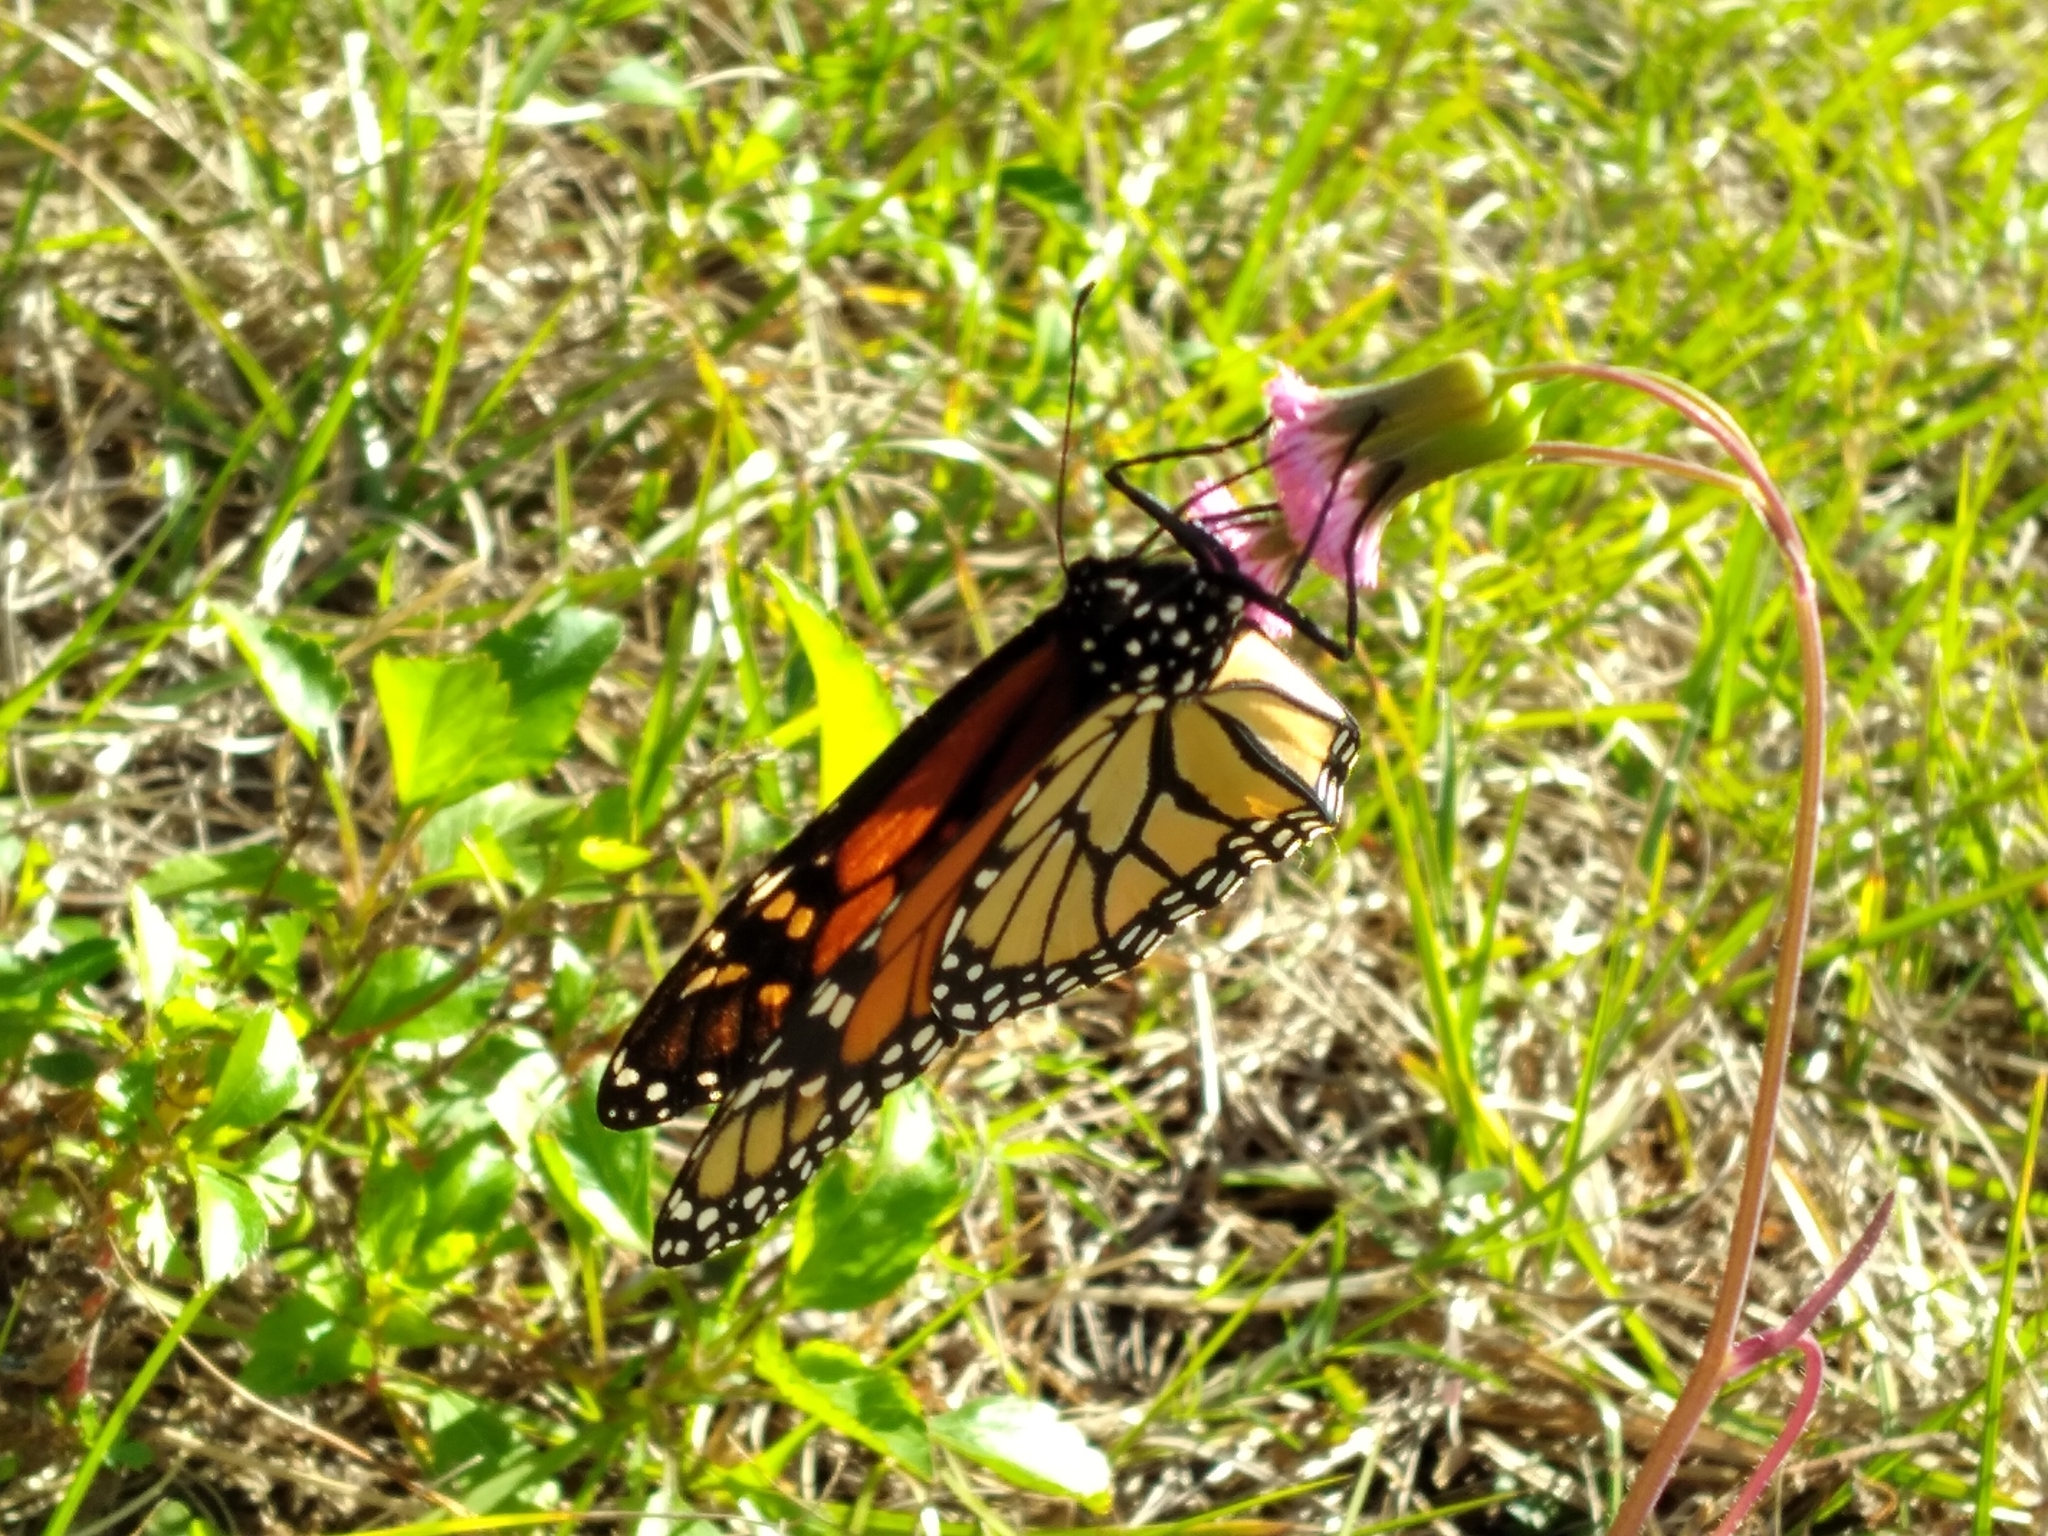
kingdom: Animalia
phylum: Arthropoda
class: Insecta
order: Lepidoptera
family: Nymphalidae
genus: Danaus
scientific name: Danaus plexippus
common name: Monarch
